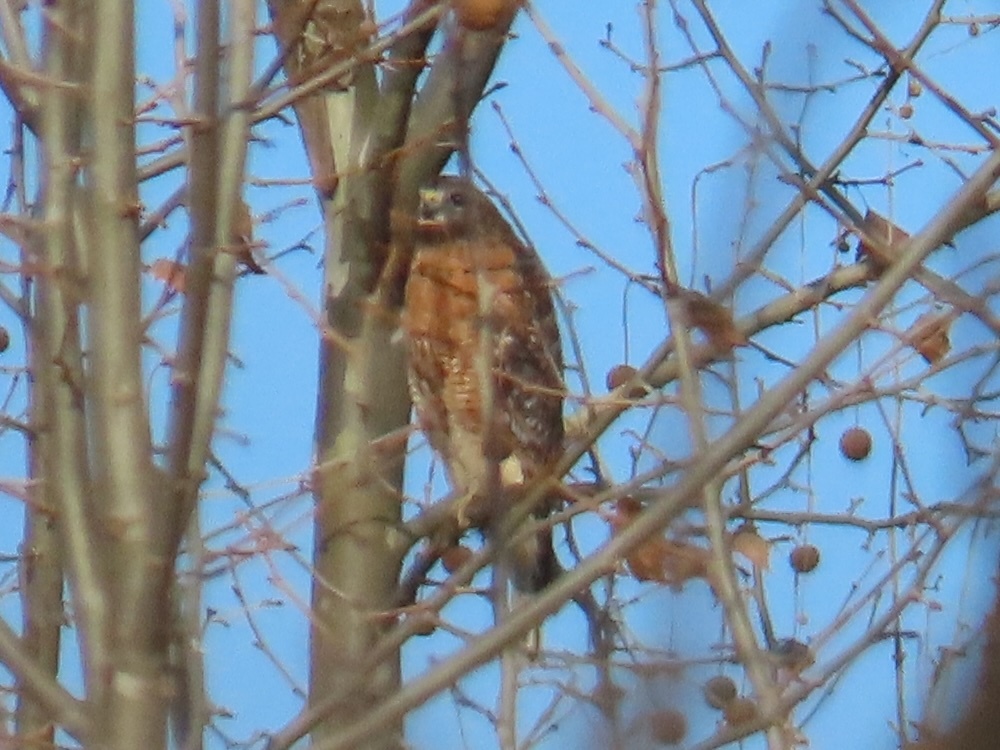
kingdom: Animalia
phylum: Chordata
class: Aves
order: Accipitriformes
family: Accipitridae
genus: Buteo
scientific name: Buteo lineatus
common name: Red-shouldered hawk
